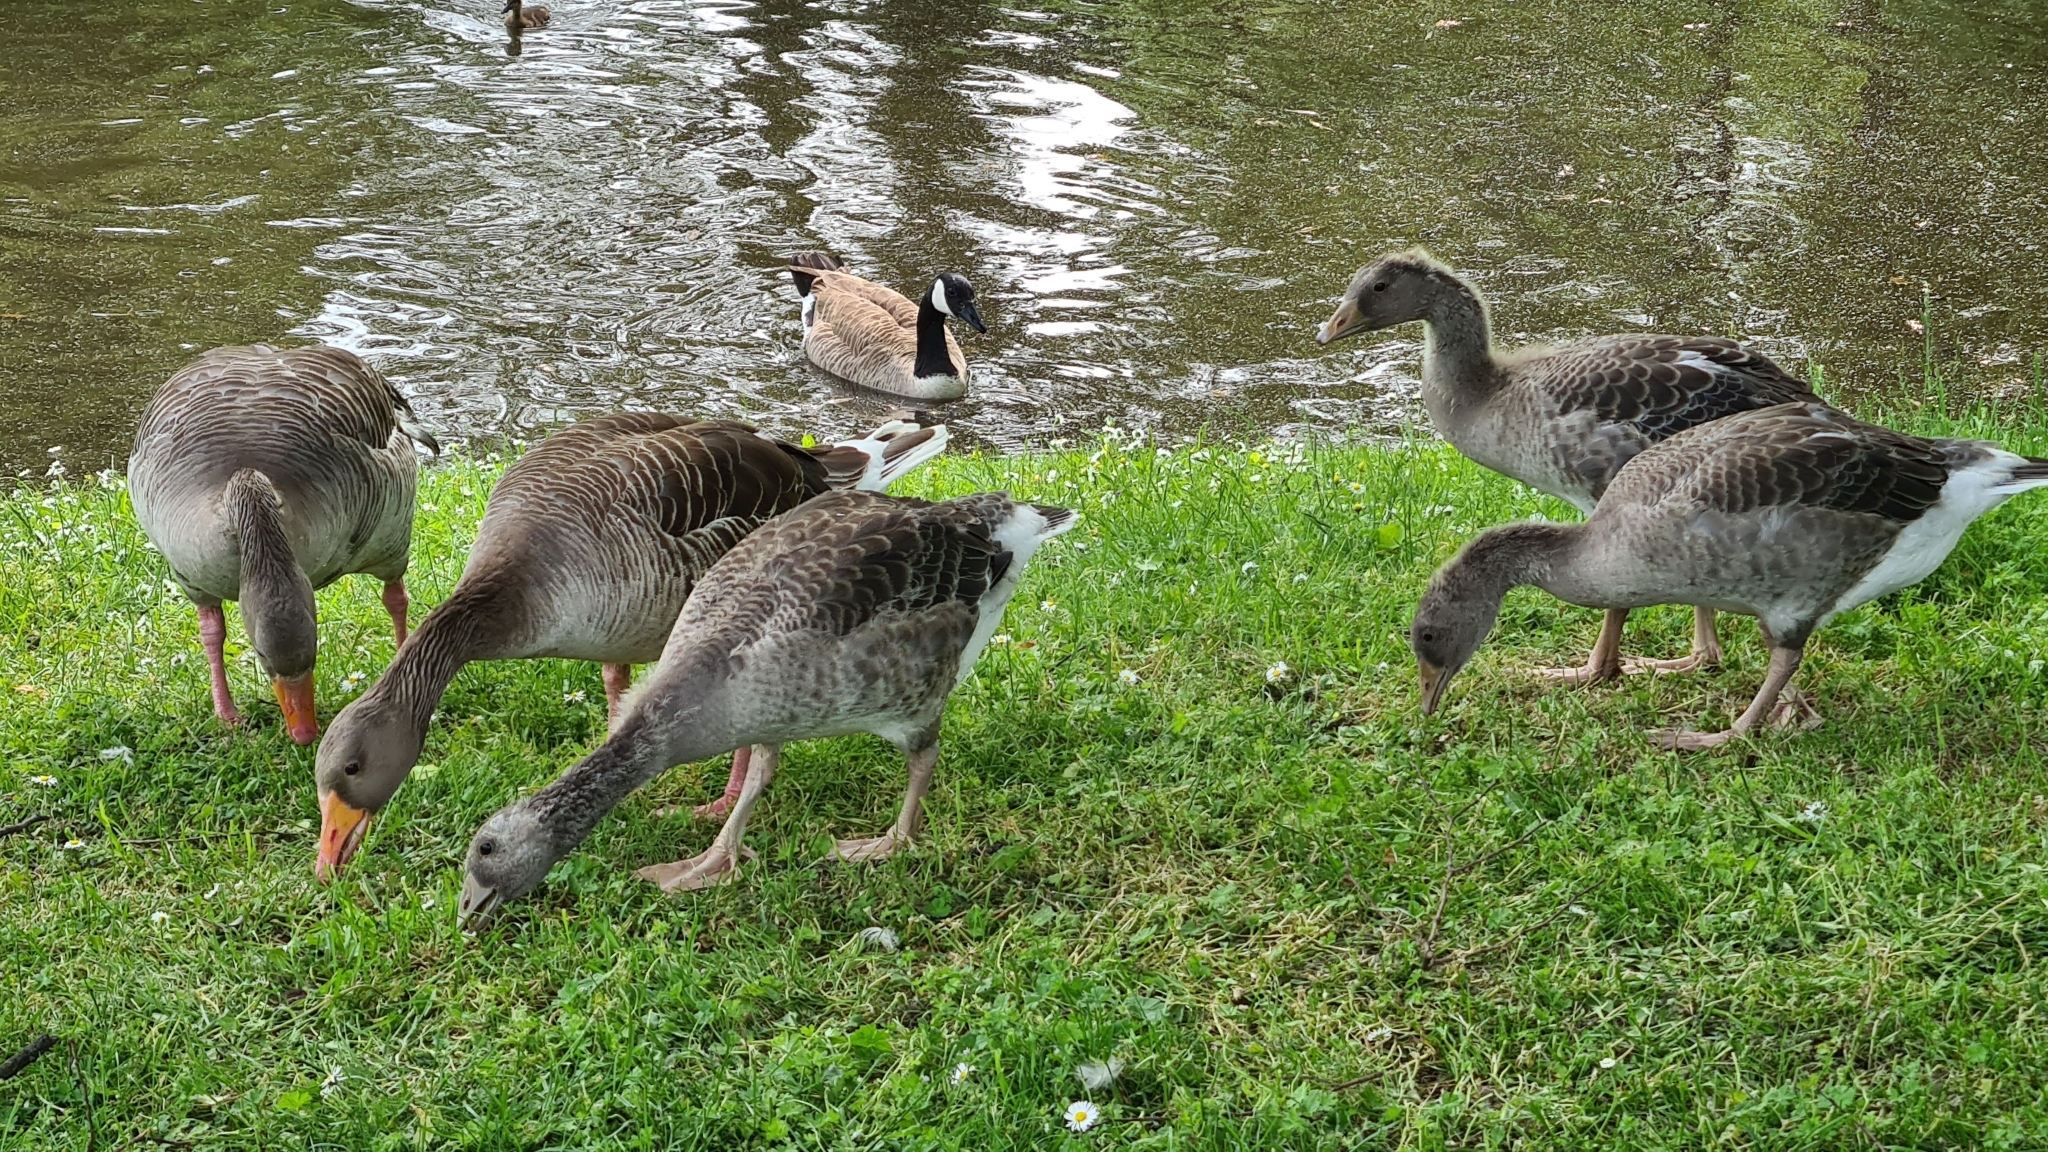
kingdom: Animalia
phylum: Chordata
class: Aves
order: Anseriformes
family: Anatidae
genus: Anser
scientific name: Anser anser
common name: Greylag goose
